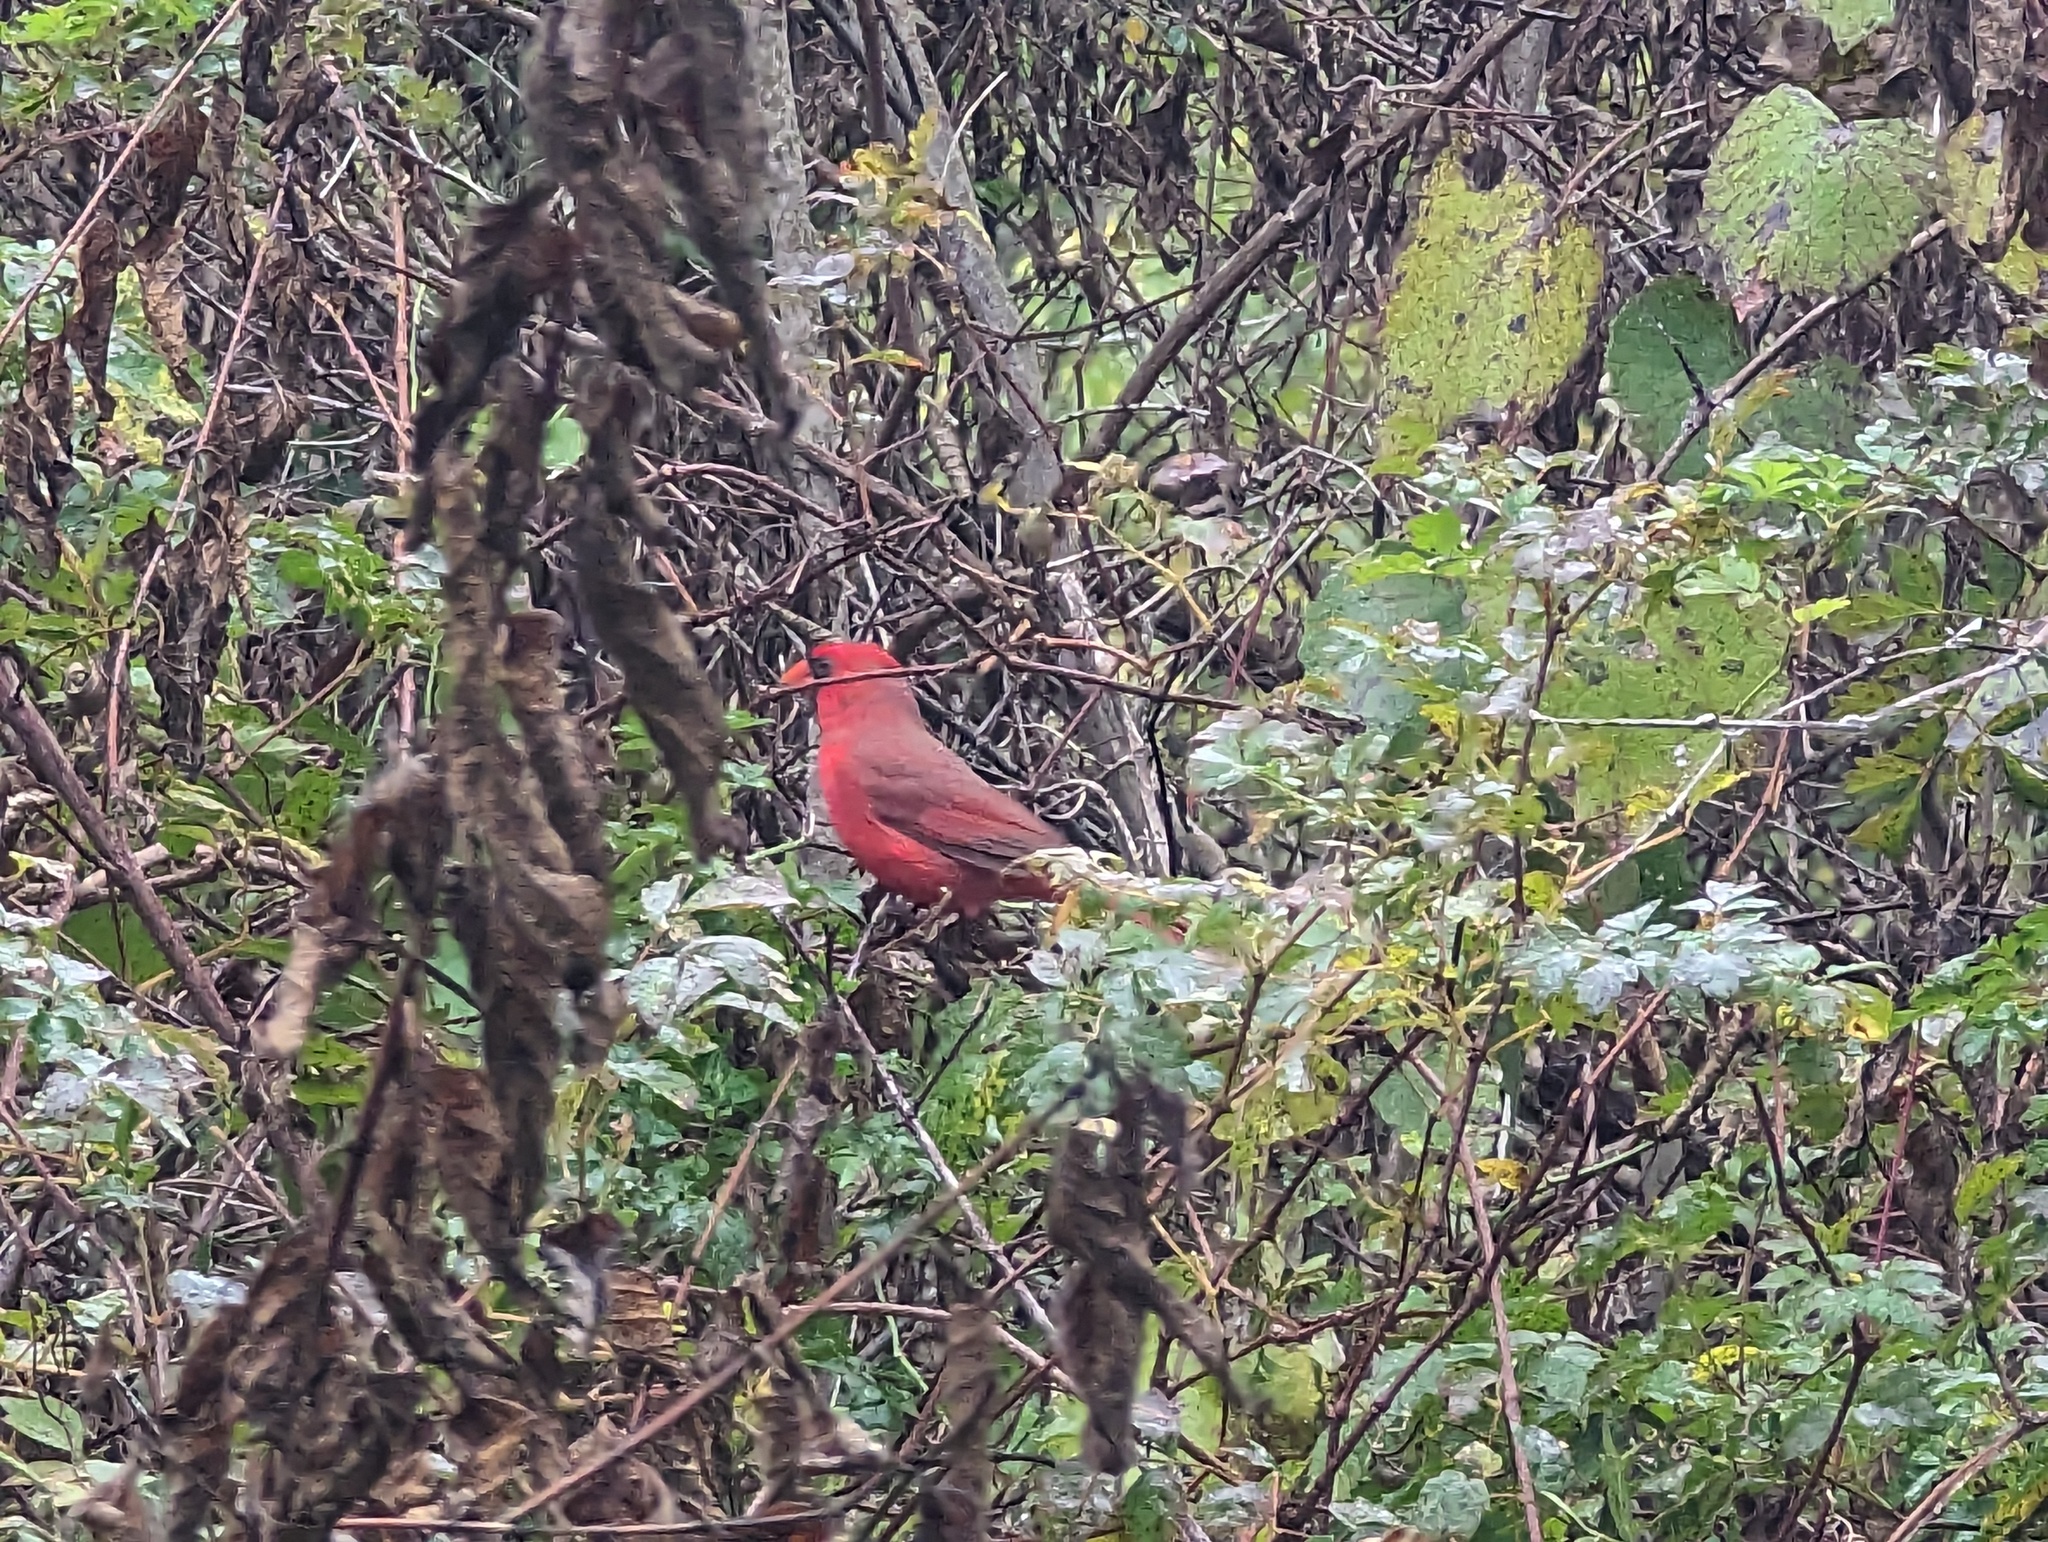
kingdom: Animalia
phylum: Chordata
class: Aves
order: Passeriformes
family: Cardinalidae
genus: Cardinalis
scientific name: Cardinalis cardinalis
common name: Northern cardinal
